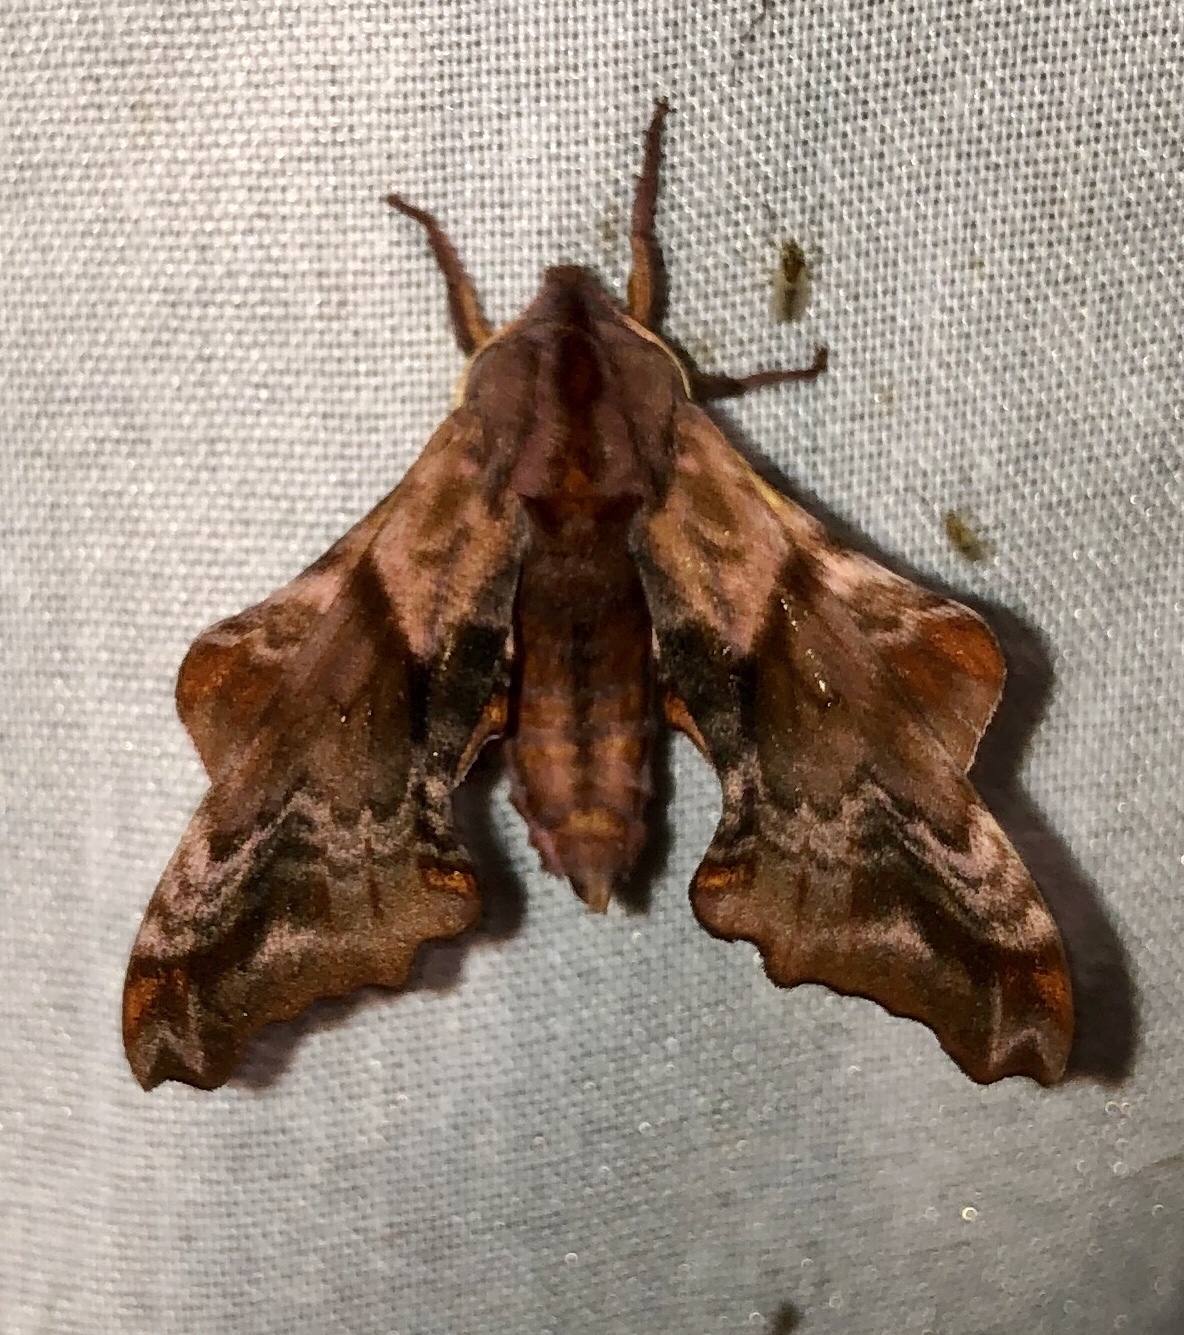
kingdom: Animalia
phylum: Arthropoda
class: Insecta
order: Lepidoptera
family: Sphingidae
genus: Paonias
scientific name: Paonias myops
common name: Small-eyed sphinx
